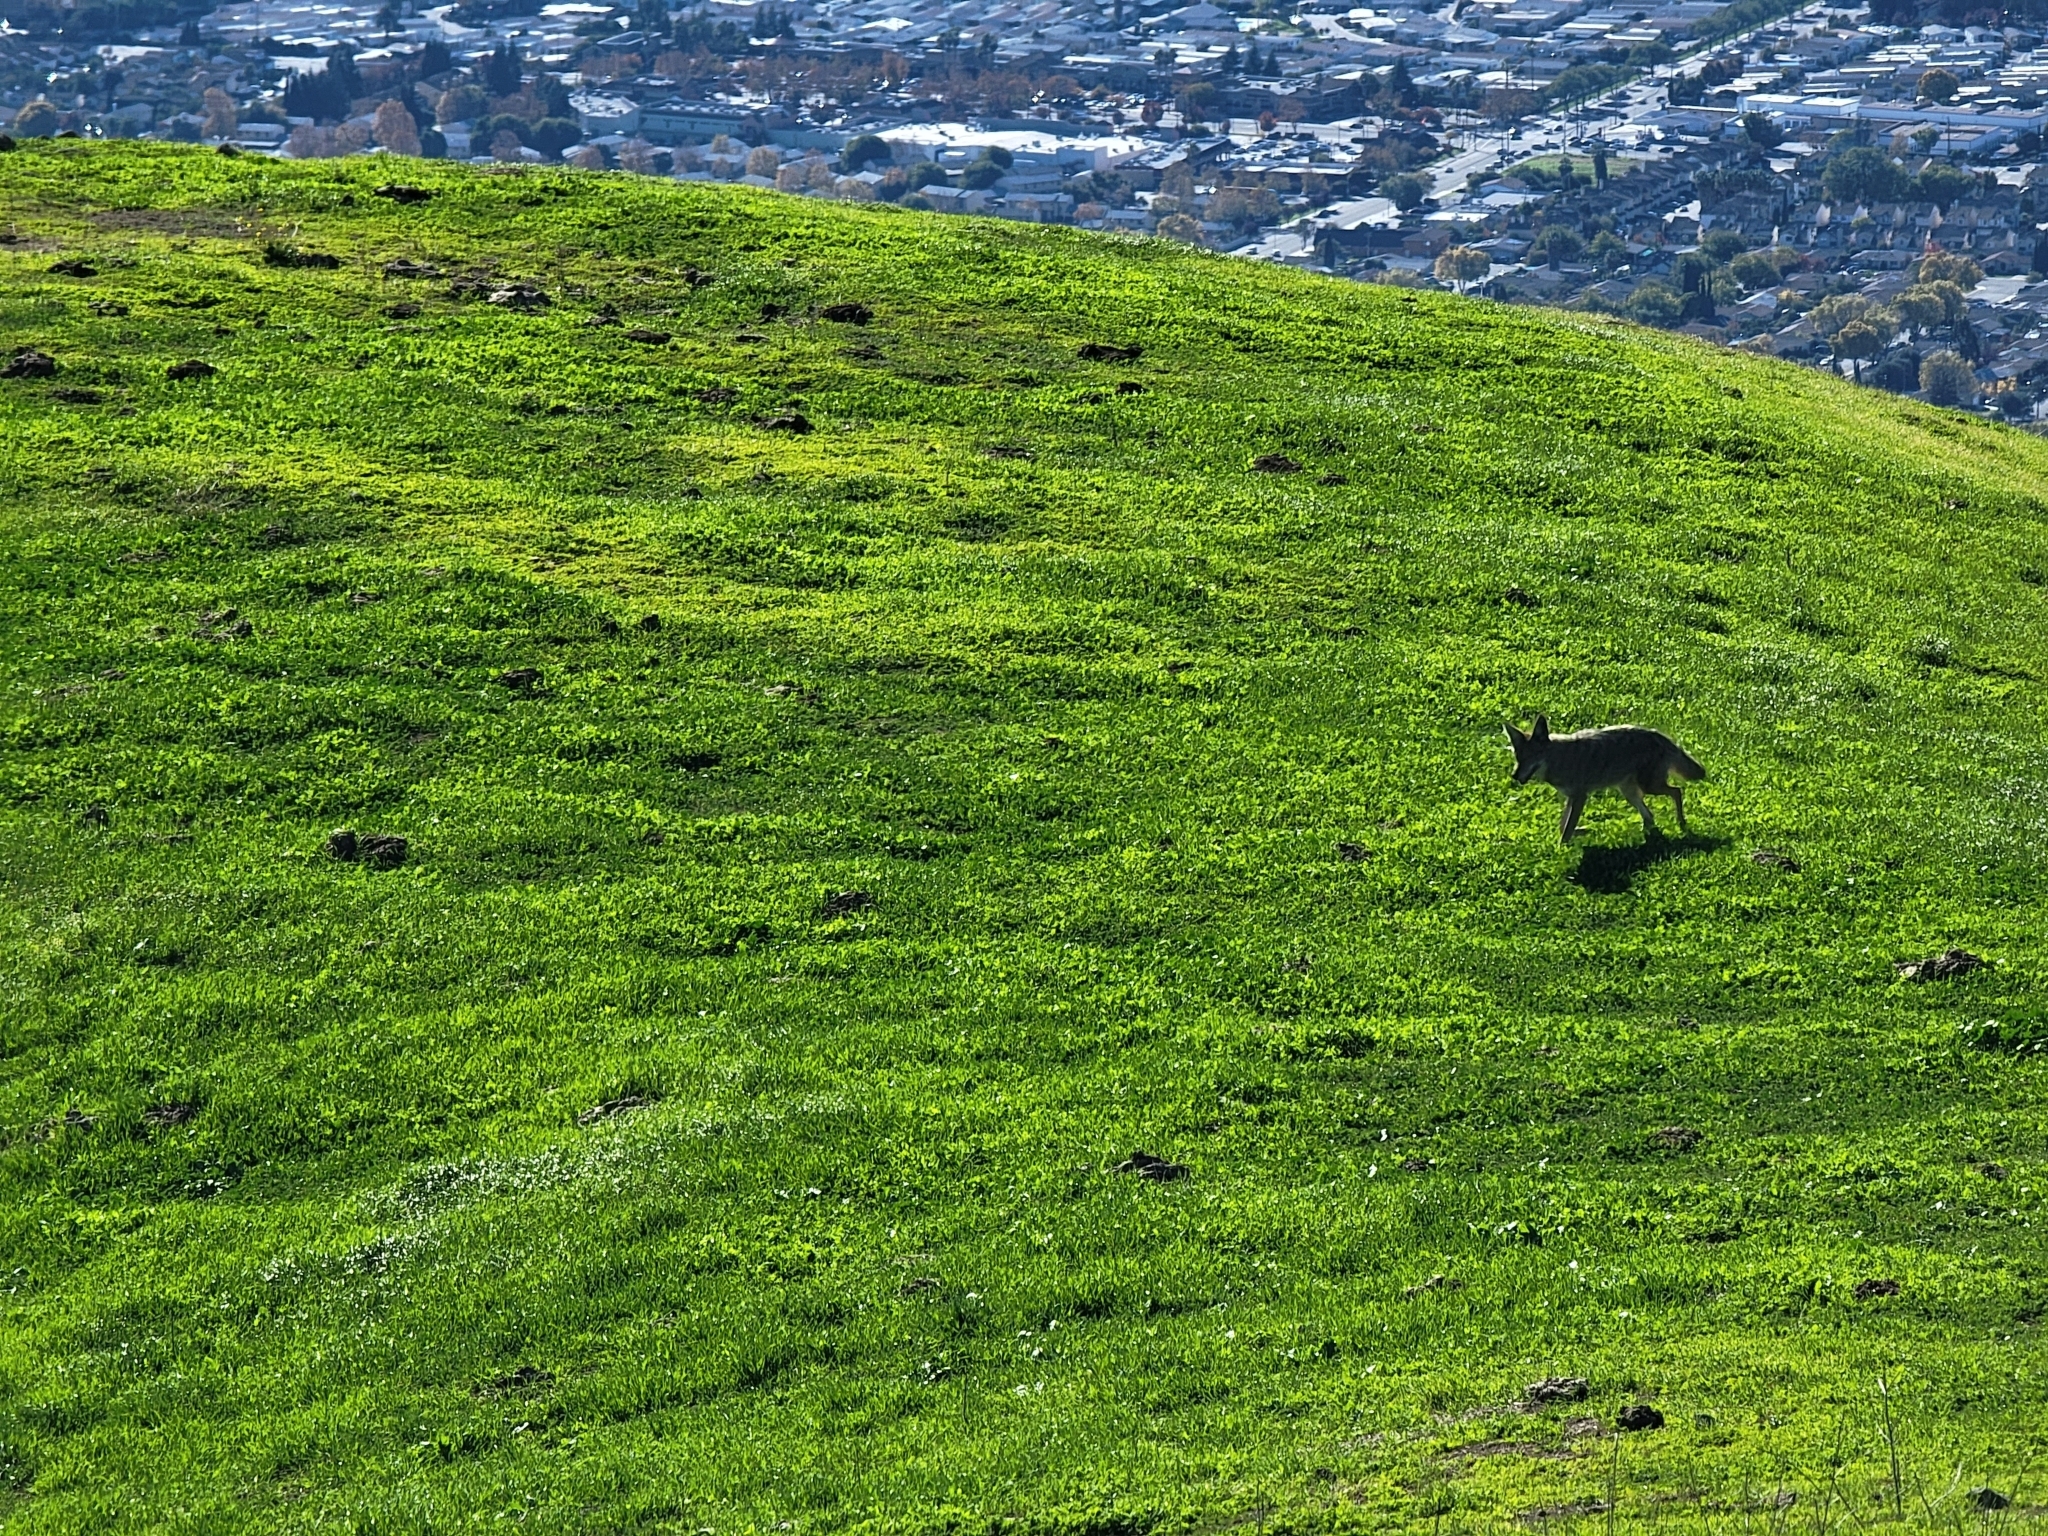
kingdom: Animalia
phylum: Chordata
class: Mammalia
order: Carnivora
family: Canidae
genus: Canis
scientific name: Canis latrans
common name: Coyote
